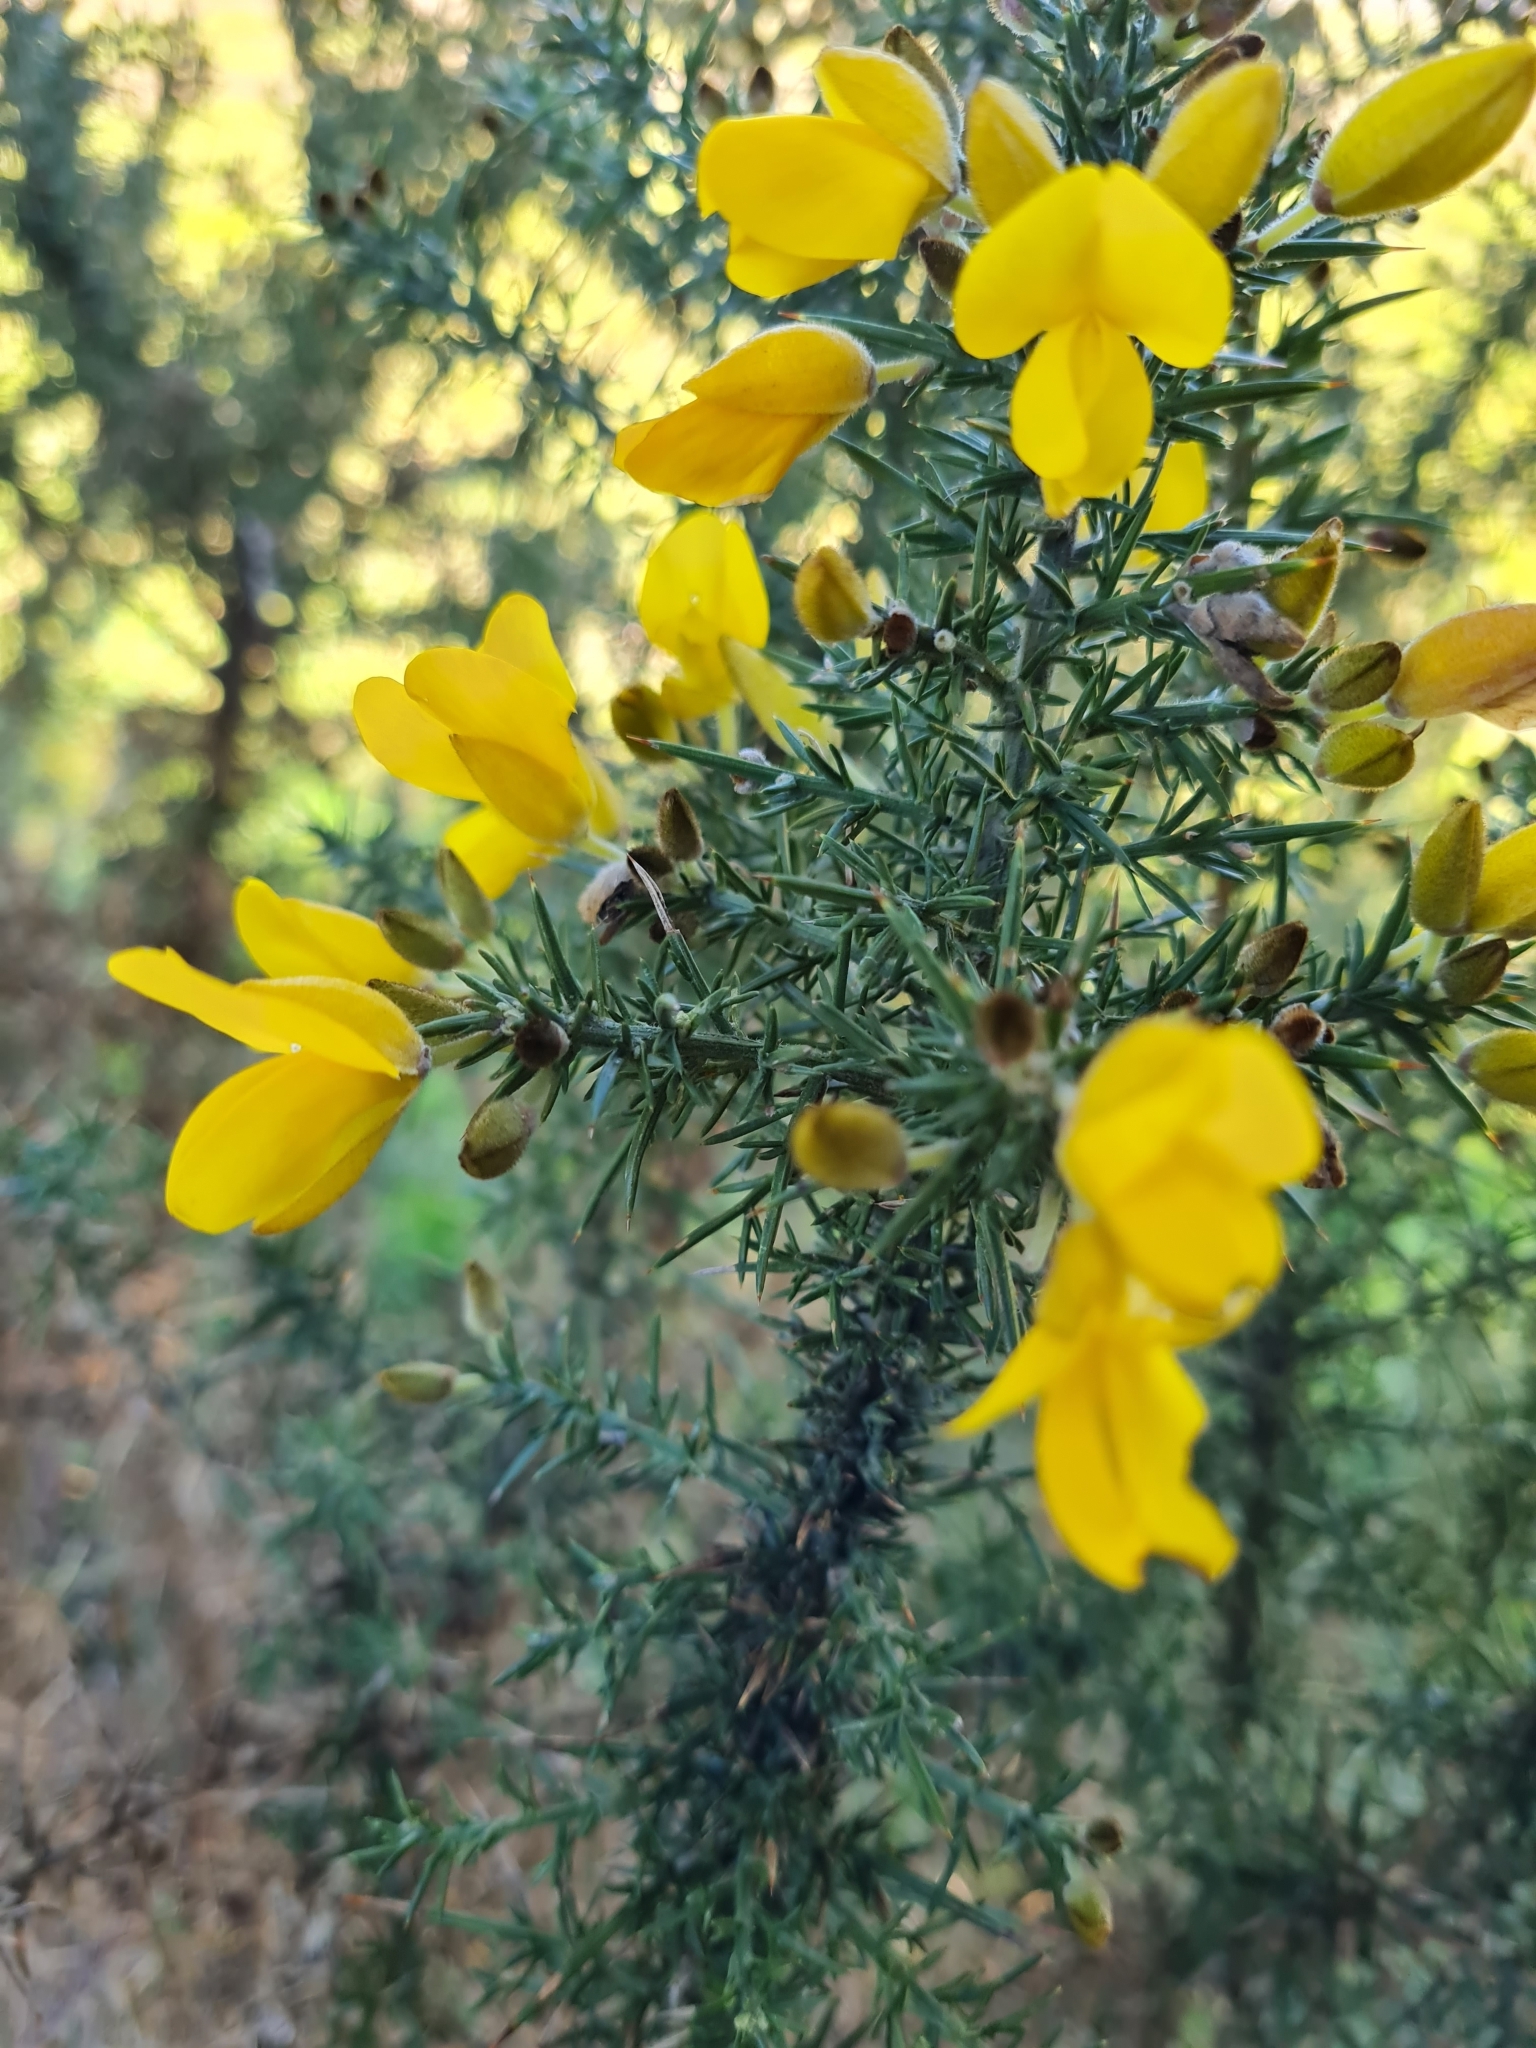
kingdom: Plantae
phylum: Tracheophyta
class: Magnoliopsida
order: Fabales
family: Fabaceae
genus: Ulex
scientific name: Ulex europaeus
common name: Common gorse
